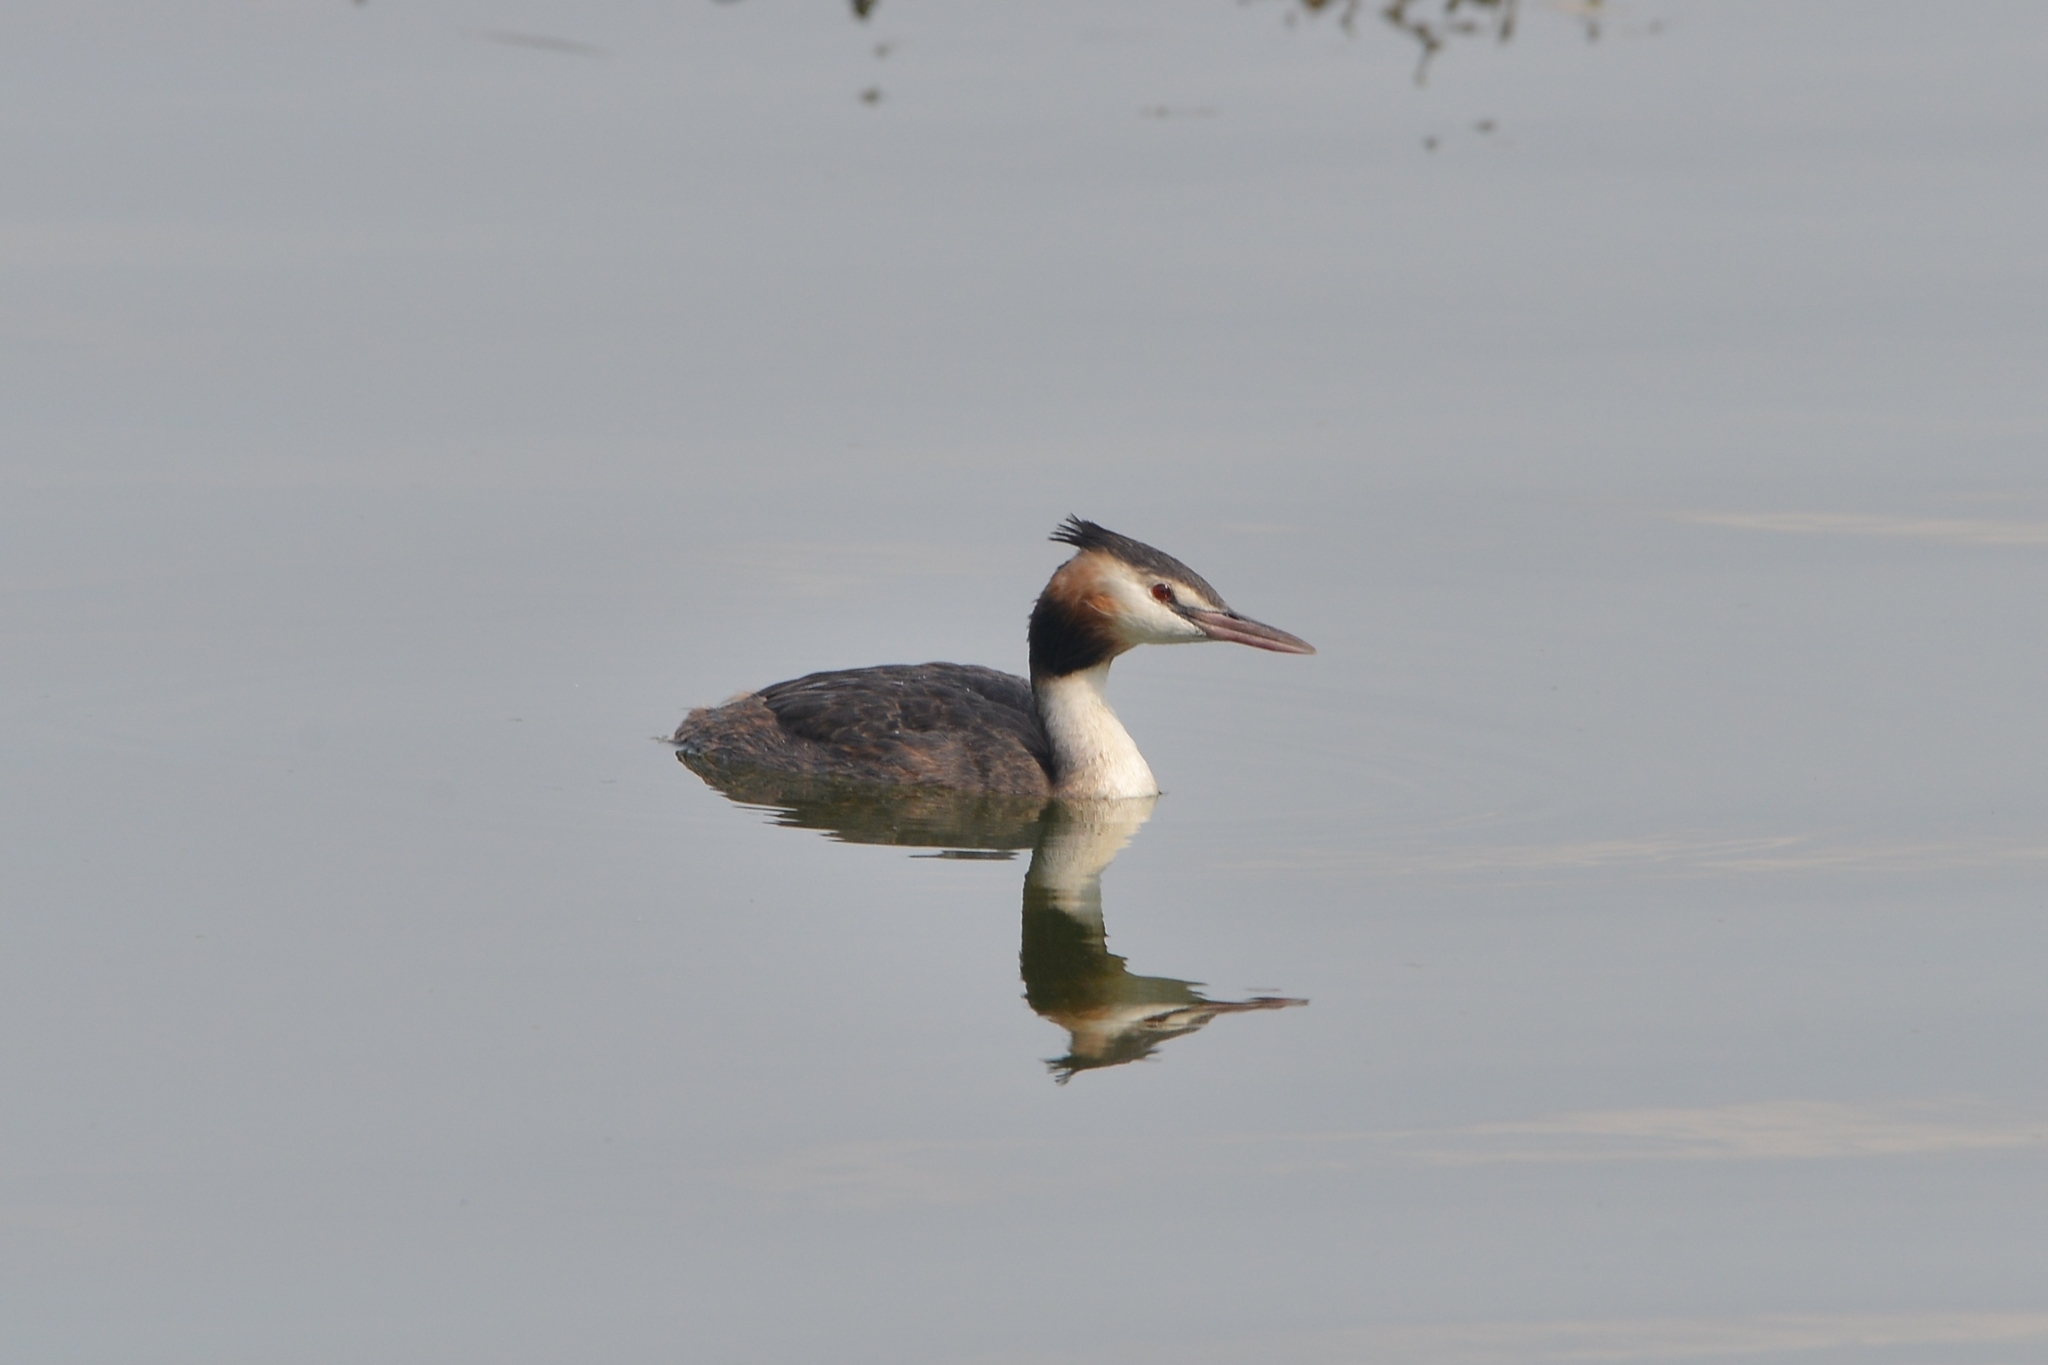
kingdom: Animalia
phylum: Chordata
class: Aves
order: Podicipediformes
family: Podicipedidae
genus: Podiceps
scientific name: Podiceps cristatus
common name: Great crested grebe
